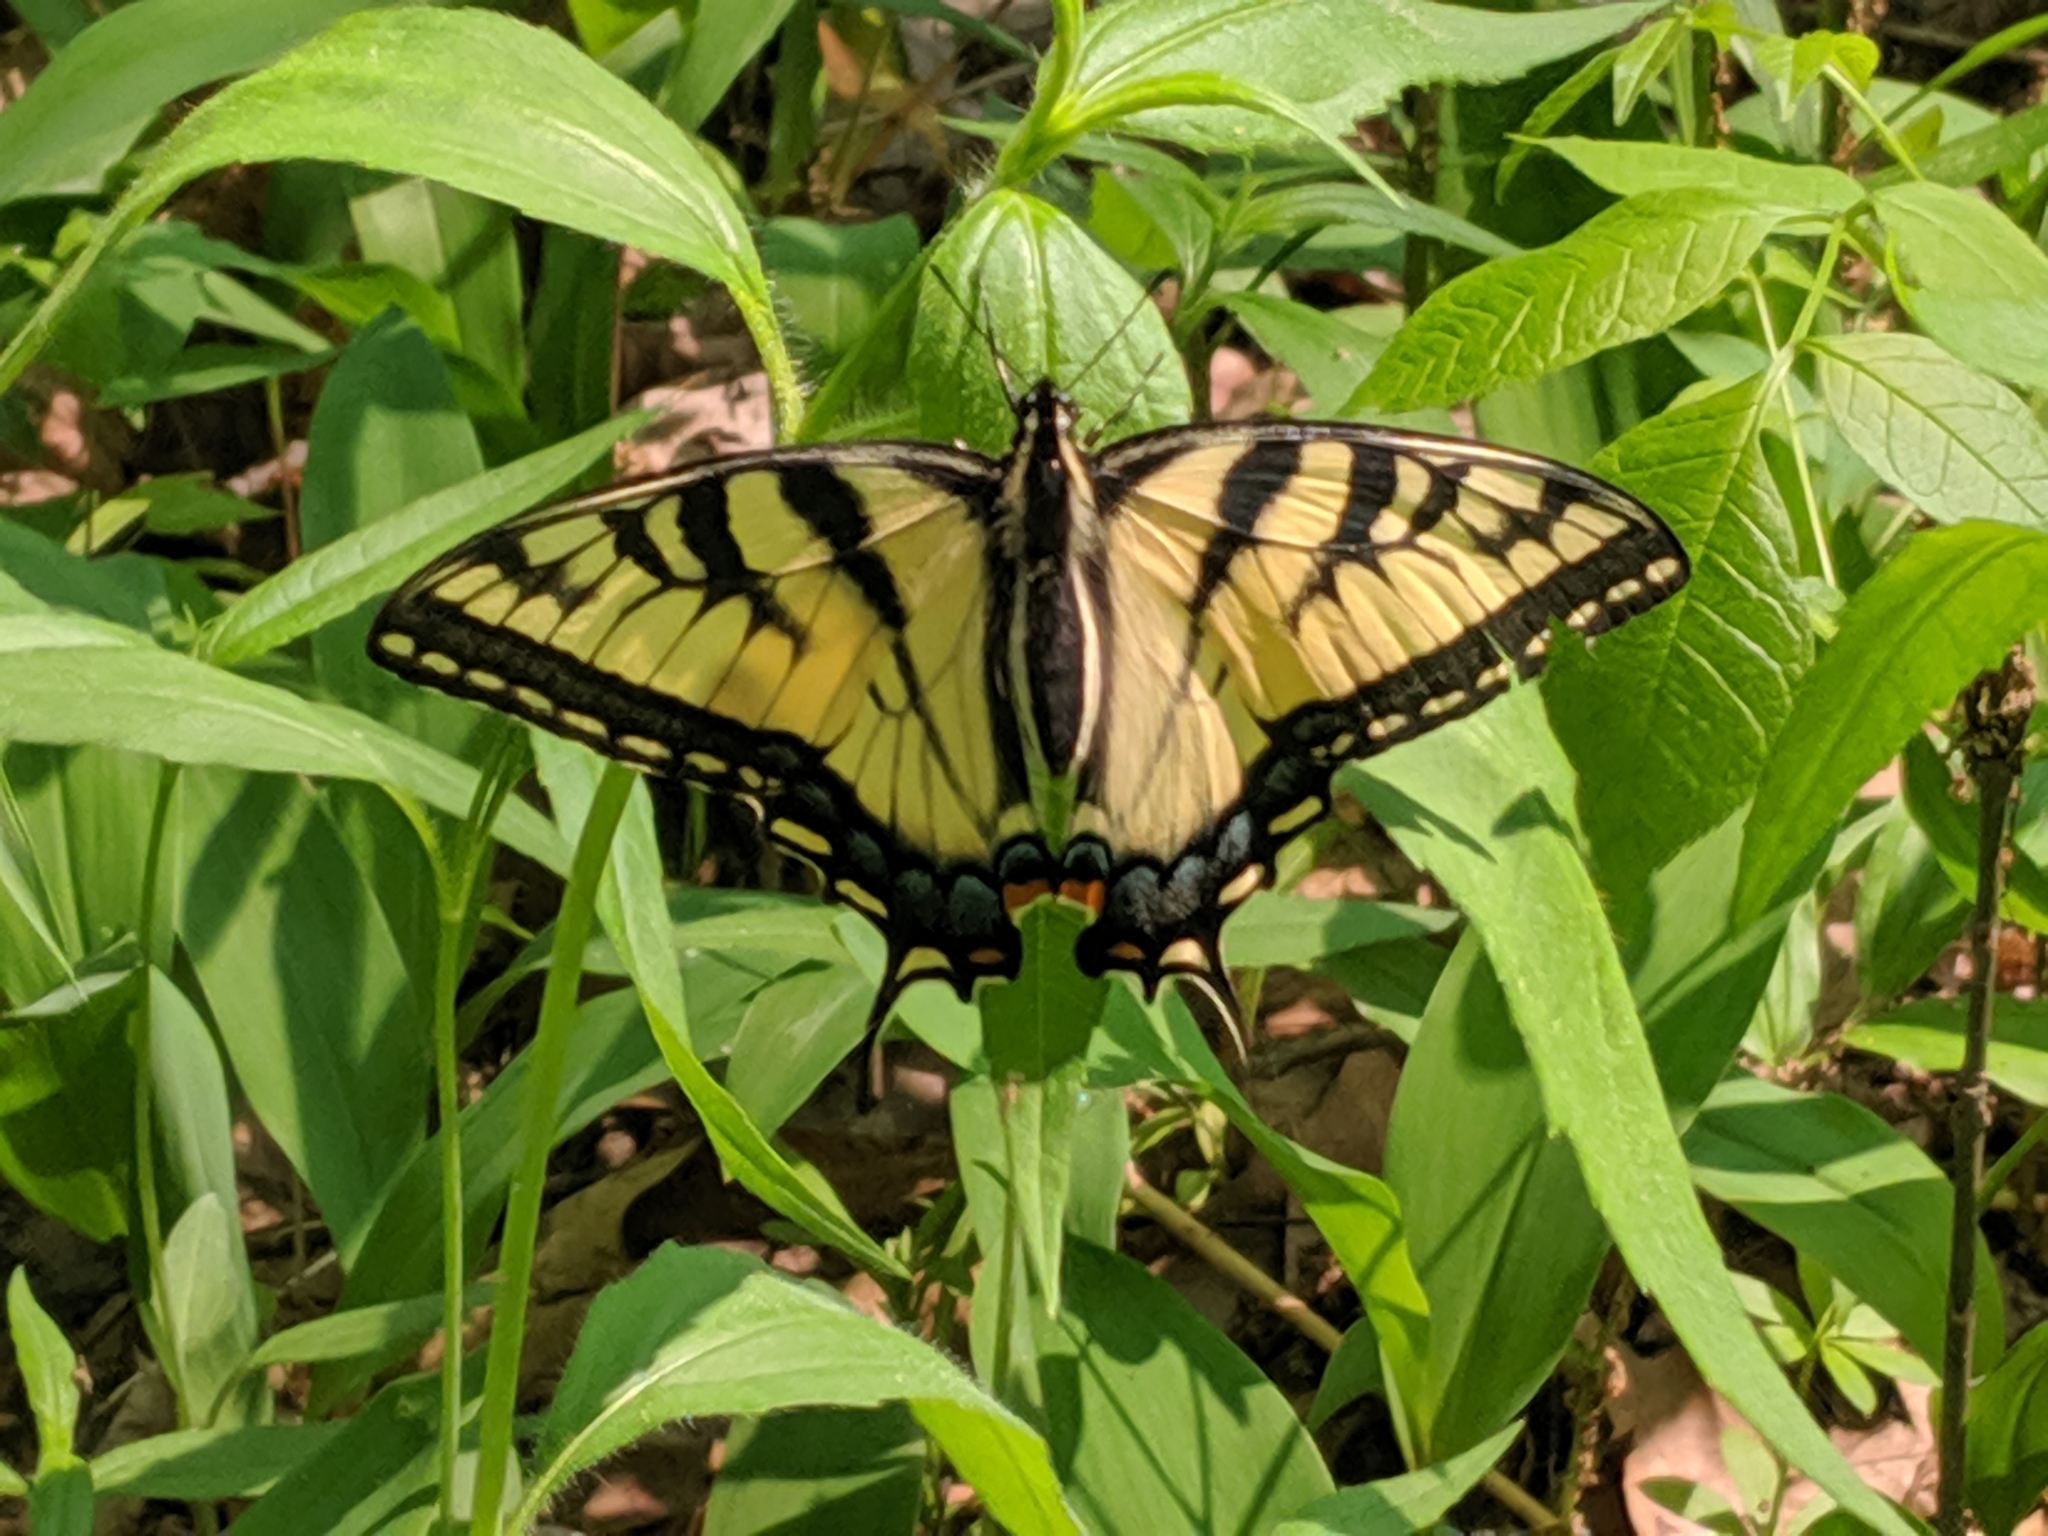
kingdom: Animalia
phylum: Arthropoda
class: Insecta
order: Lepidoptera
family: Papilionidae
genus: Papilio
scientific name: Papilio glaucus
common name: Tiger swallowtail
